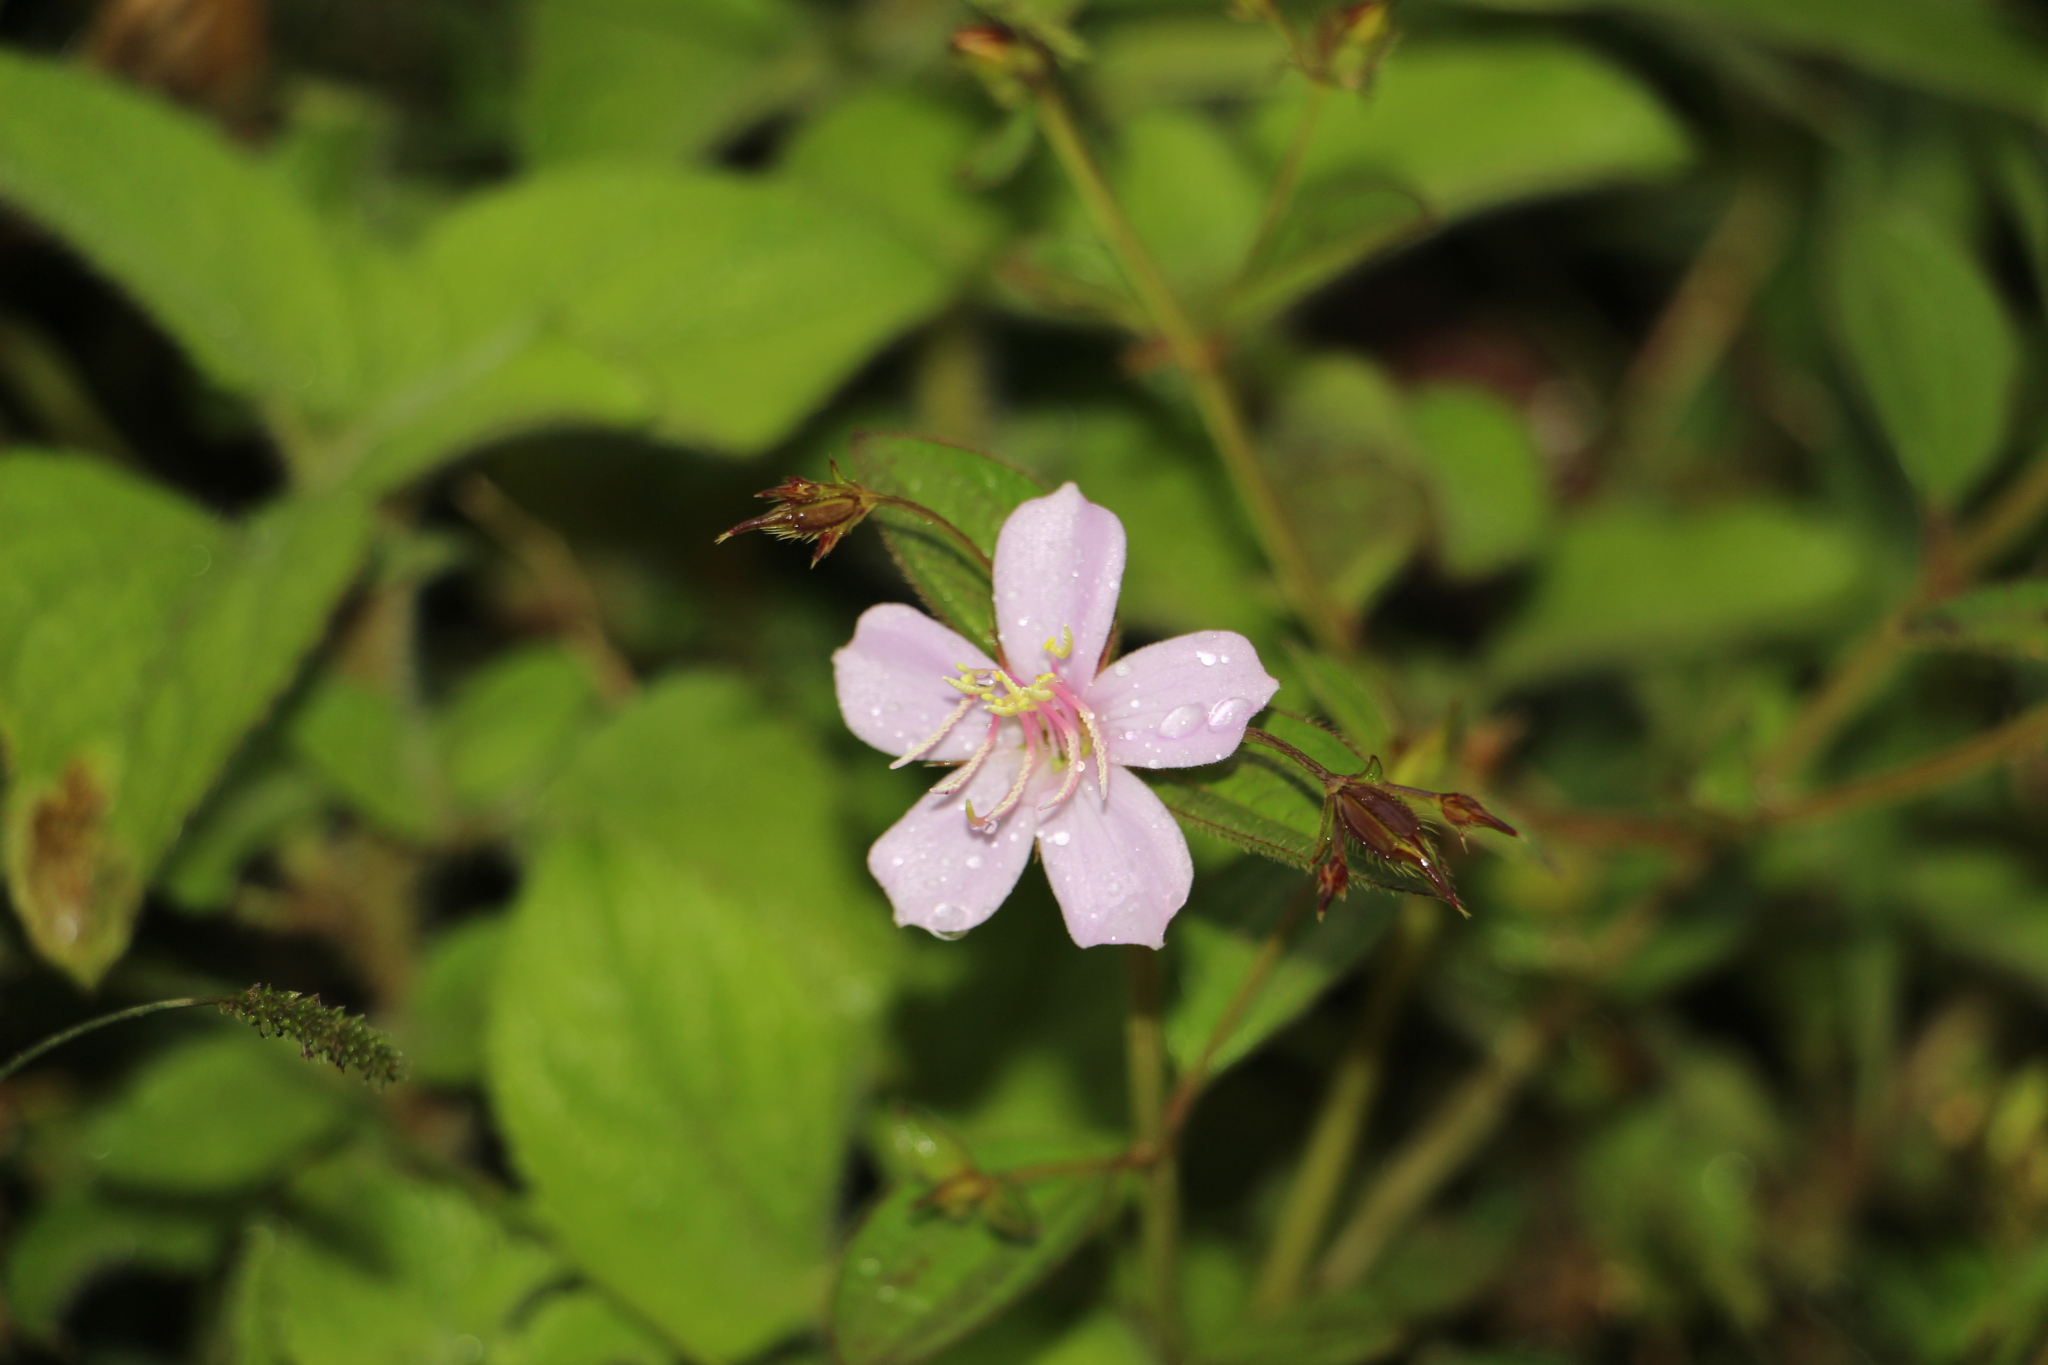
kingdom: Plantae
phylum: Tracheophyta
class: Magnoliopsida
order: Myrtales
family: Melastomataceae
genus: Pterogastra
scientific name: Pterogastra divaricata
